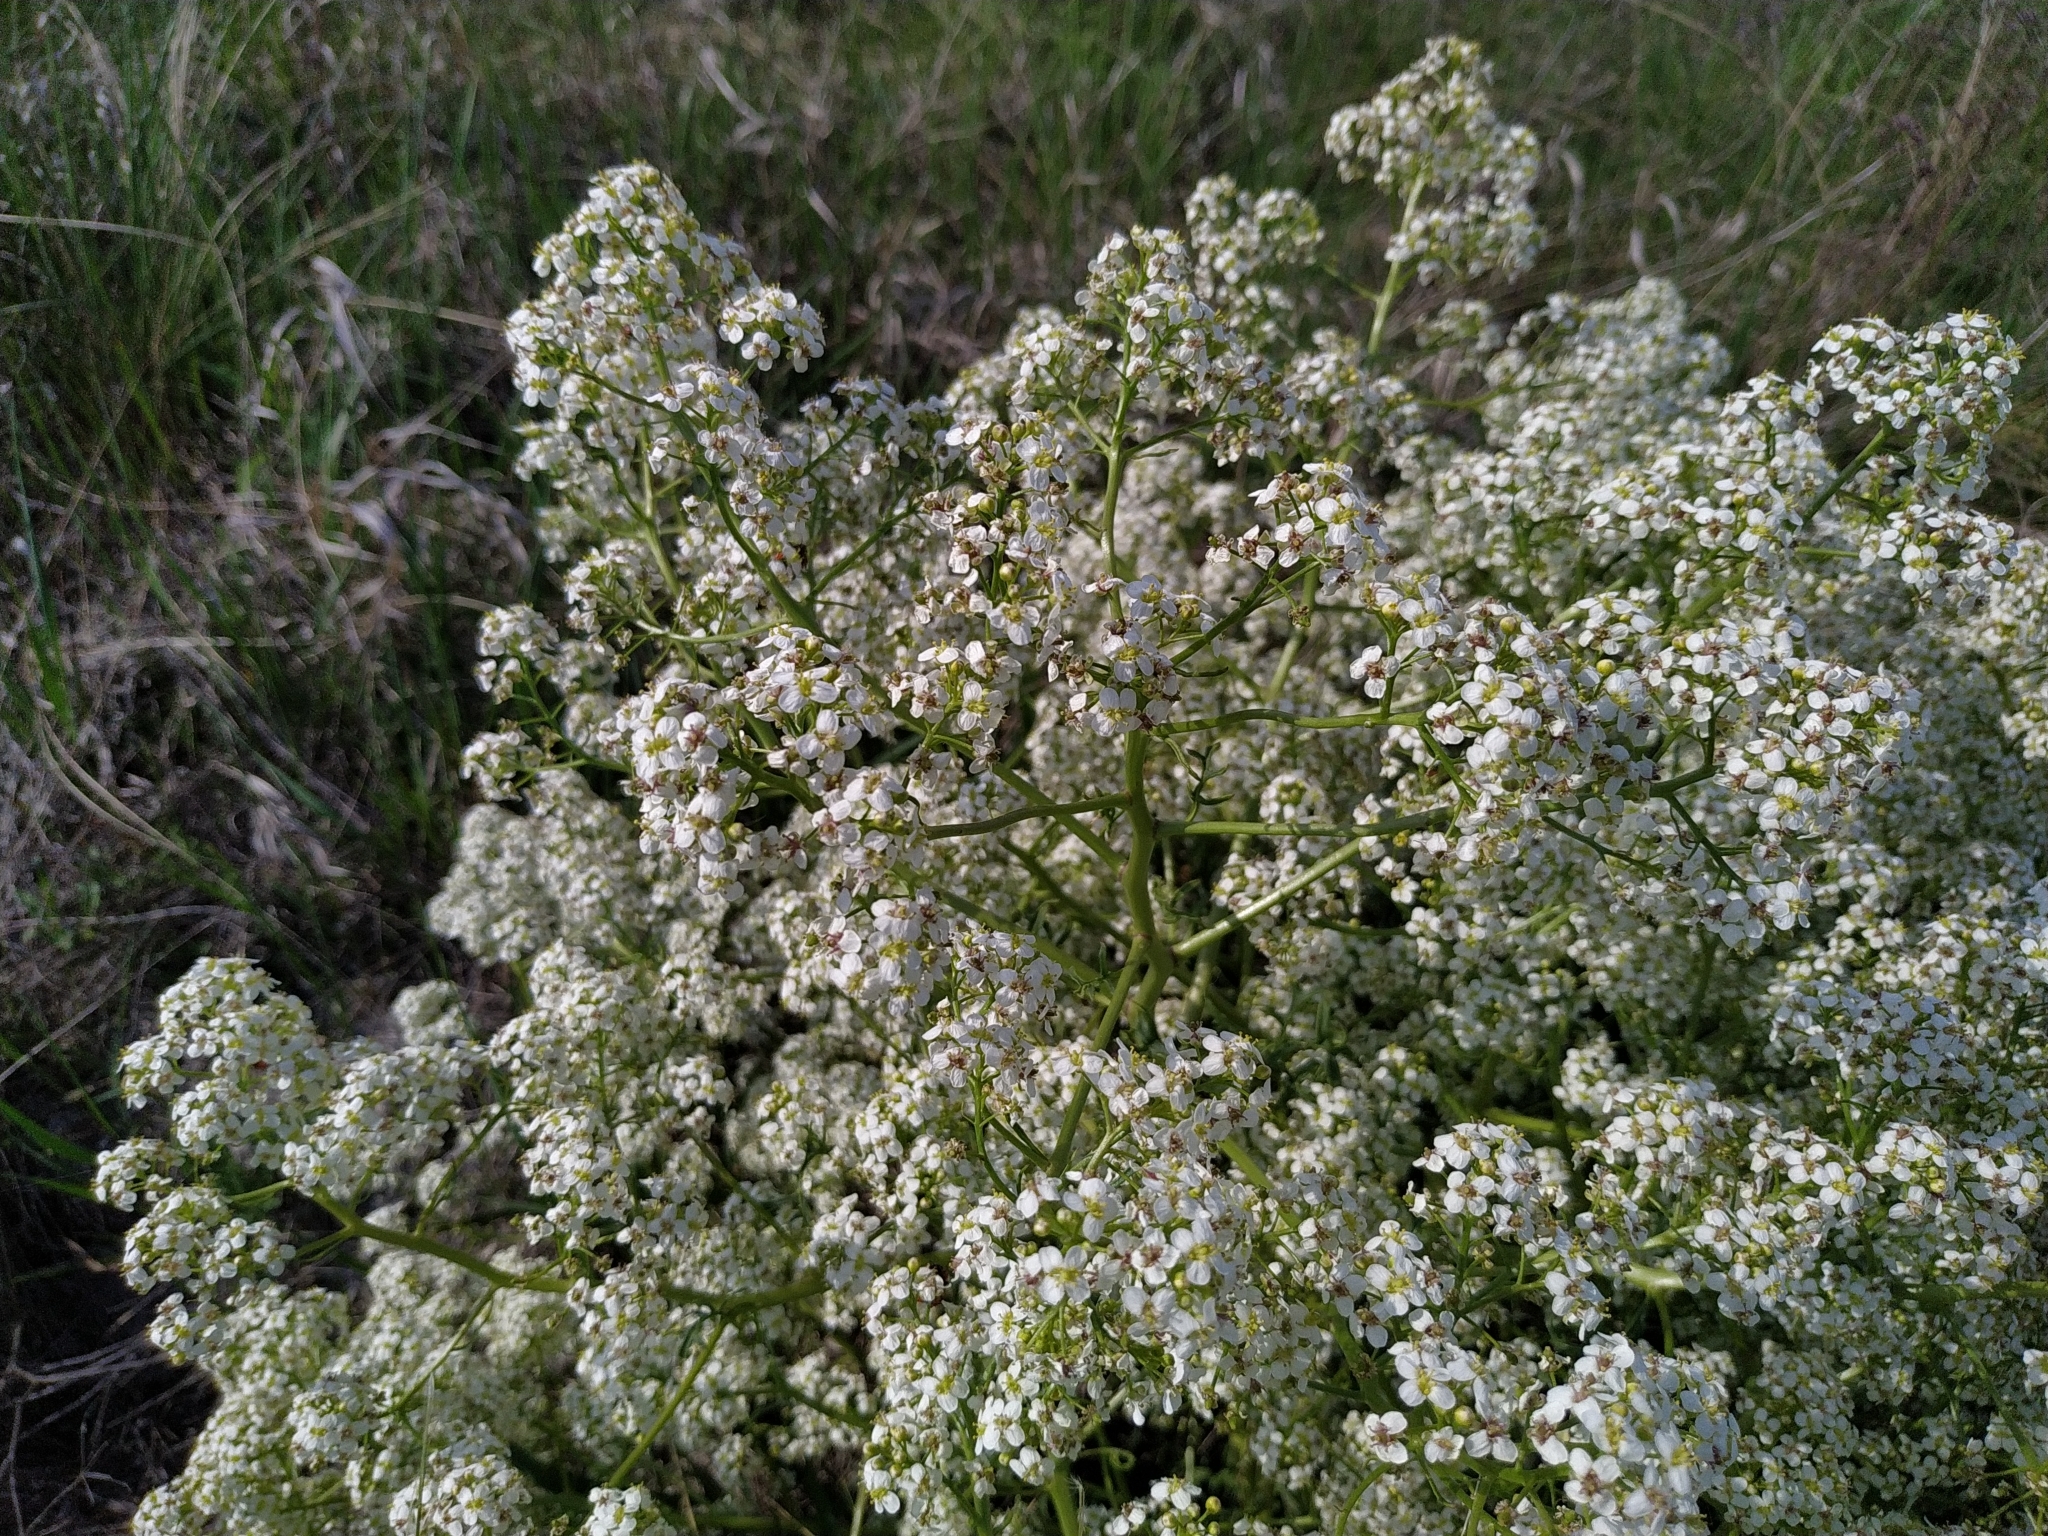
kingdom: Plantae
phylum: Tracheophyta
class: Magnoliopsida
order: Brassicales
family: Brassicaceae
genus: Crambe
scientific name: Crambe tataria
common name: Tartarian breadplant
